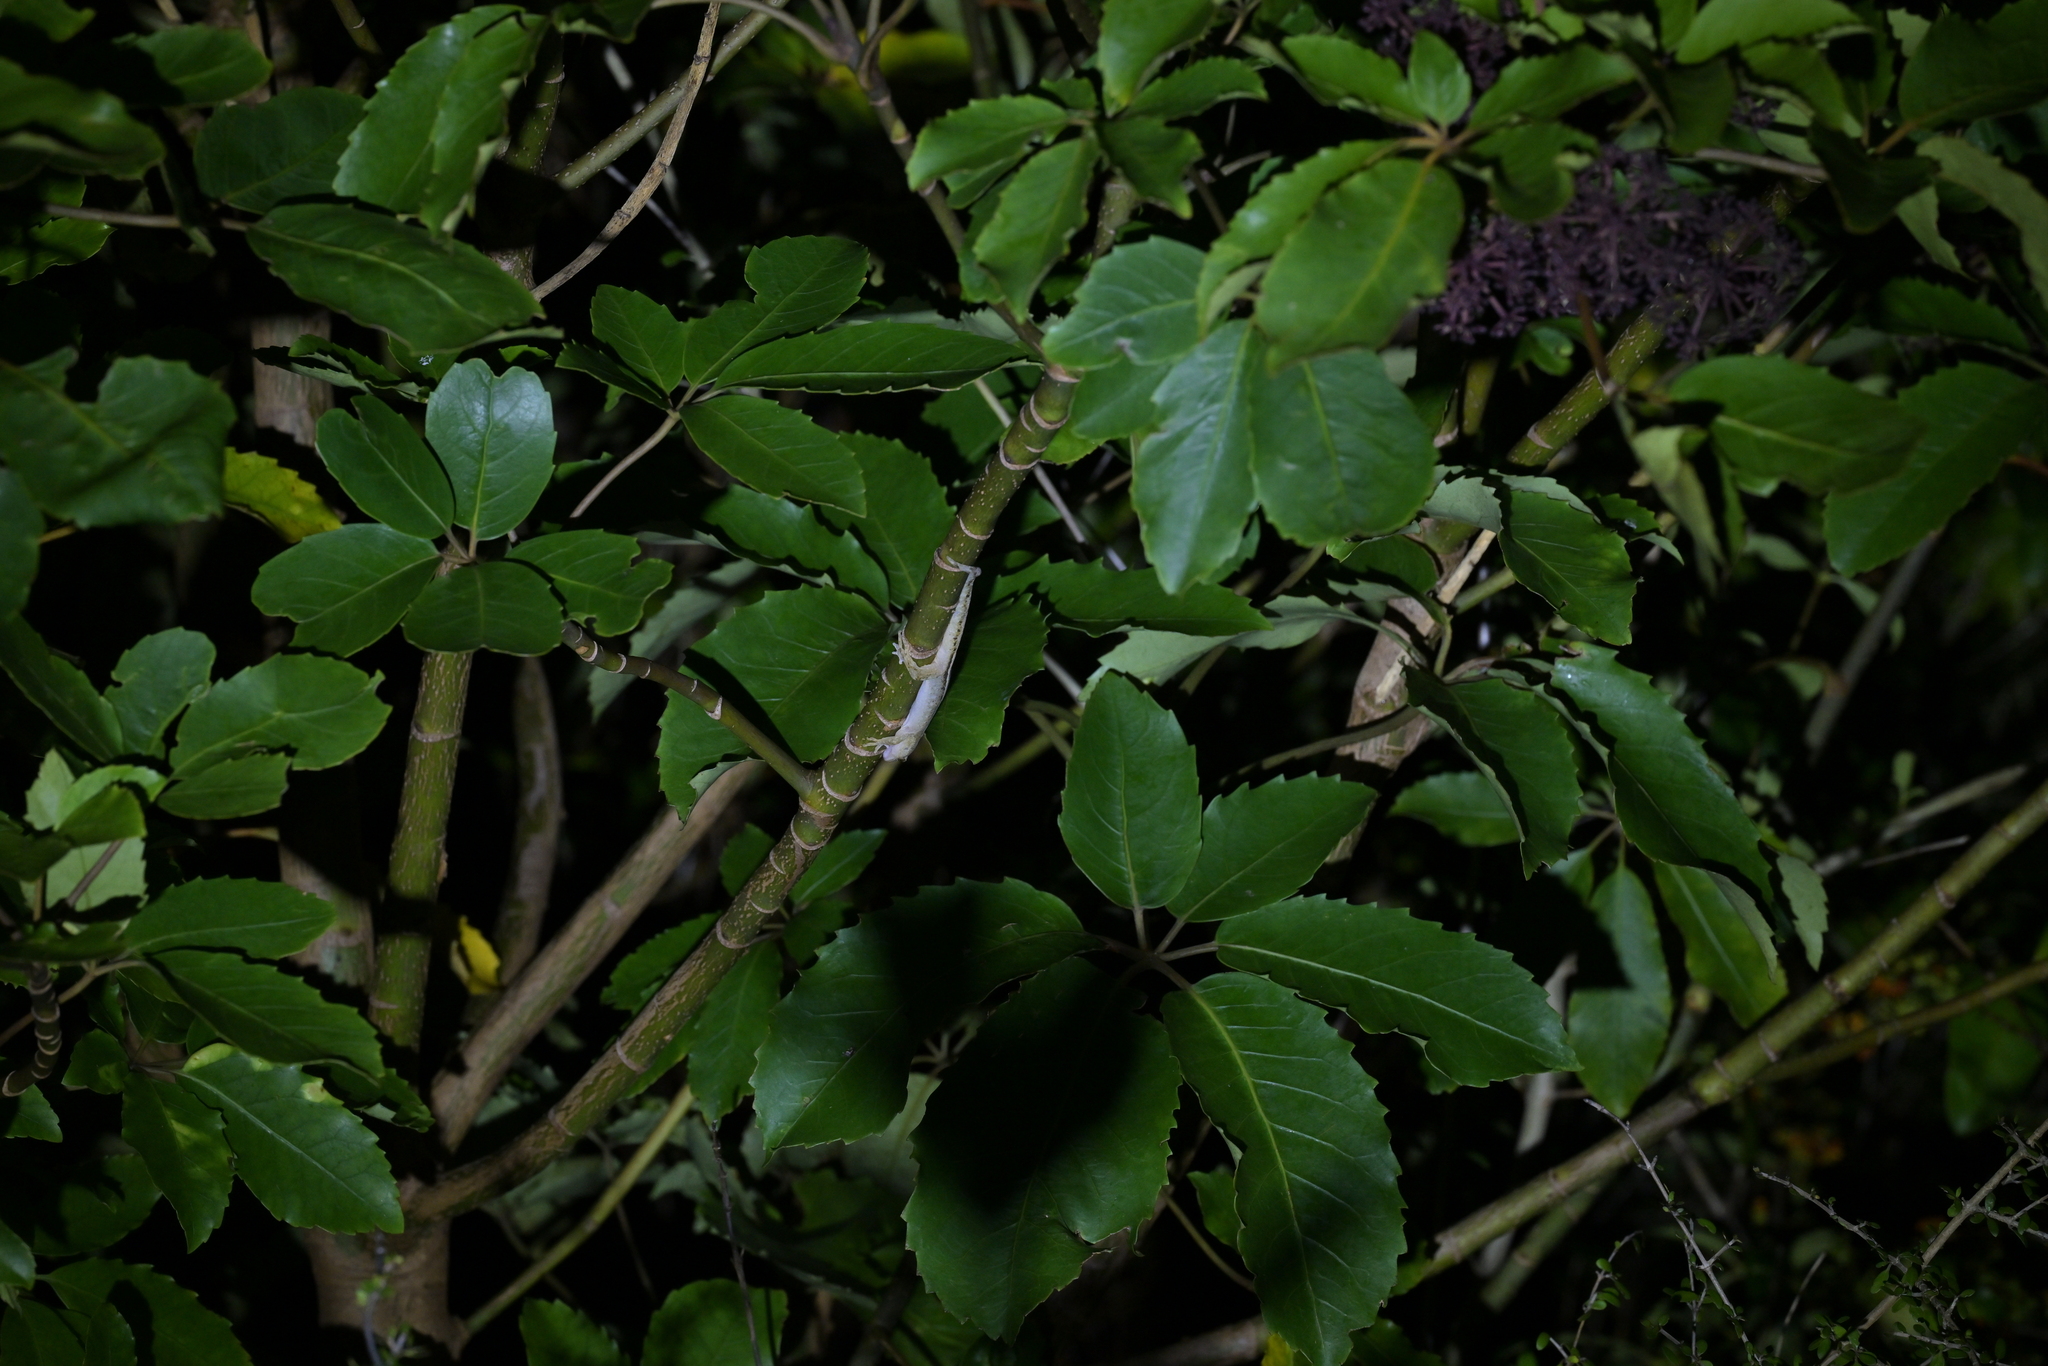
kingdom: Animalia
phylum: Chordata
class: Squamata
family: Diplodactylidae
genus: Woodworthia
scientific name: Woodworthia maculata
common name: Raukawa gecko
